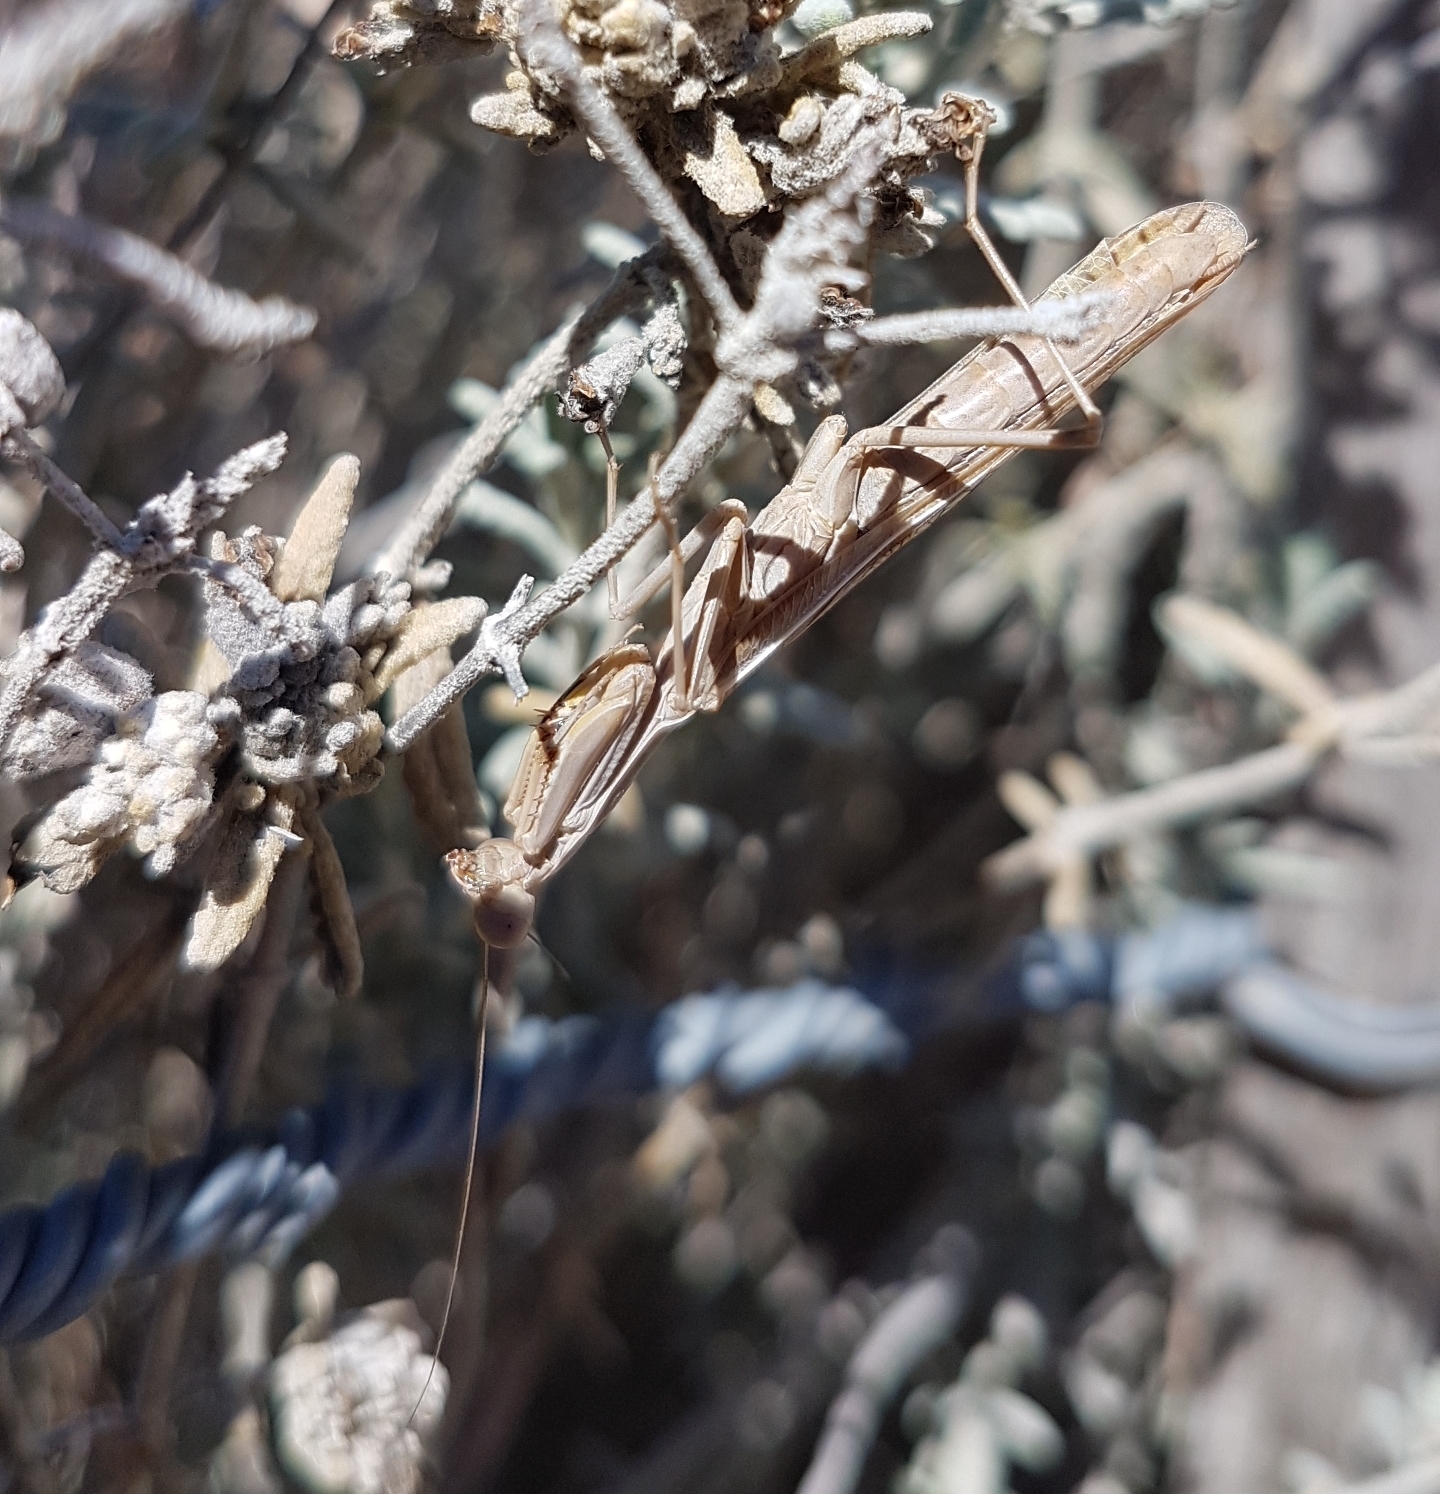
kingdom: Animalia
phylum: Arthropoda
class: Insecta
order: Mantodea
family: Eremiaphilidae
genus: Iris
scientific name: Iris oratoria
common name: Mediterranean mantis
